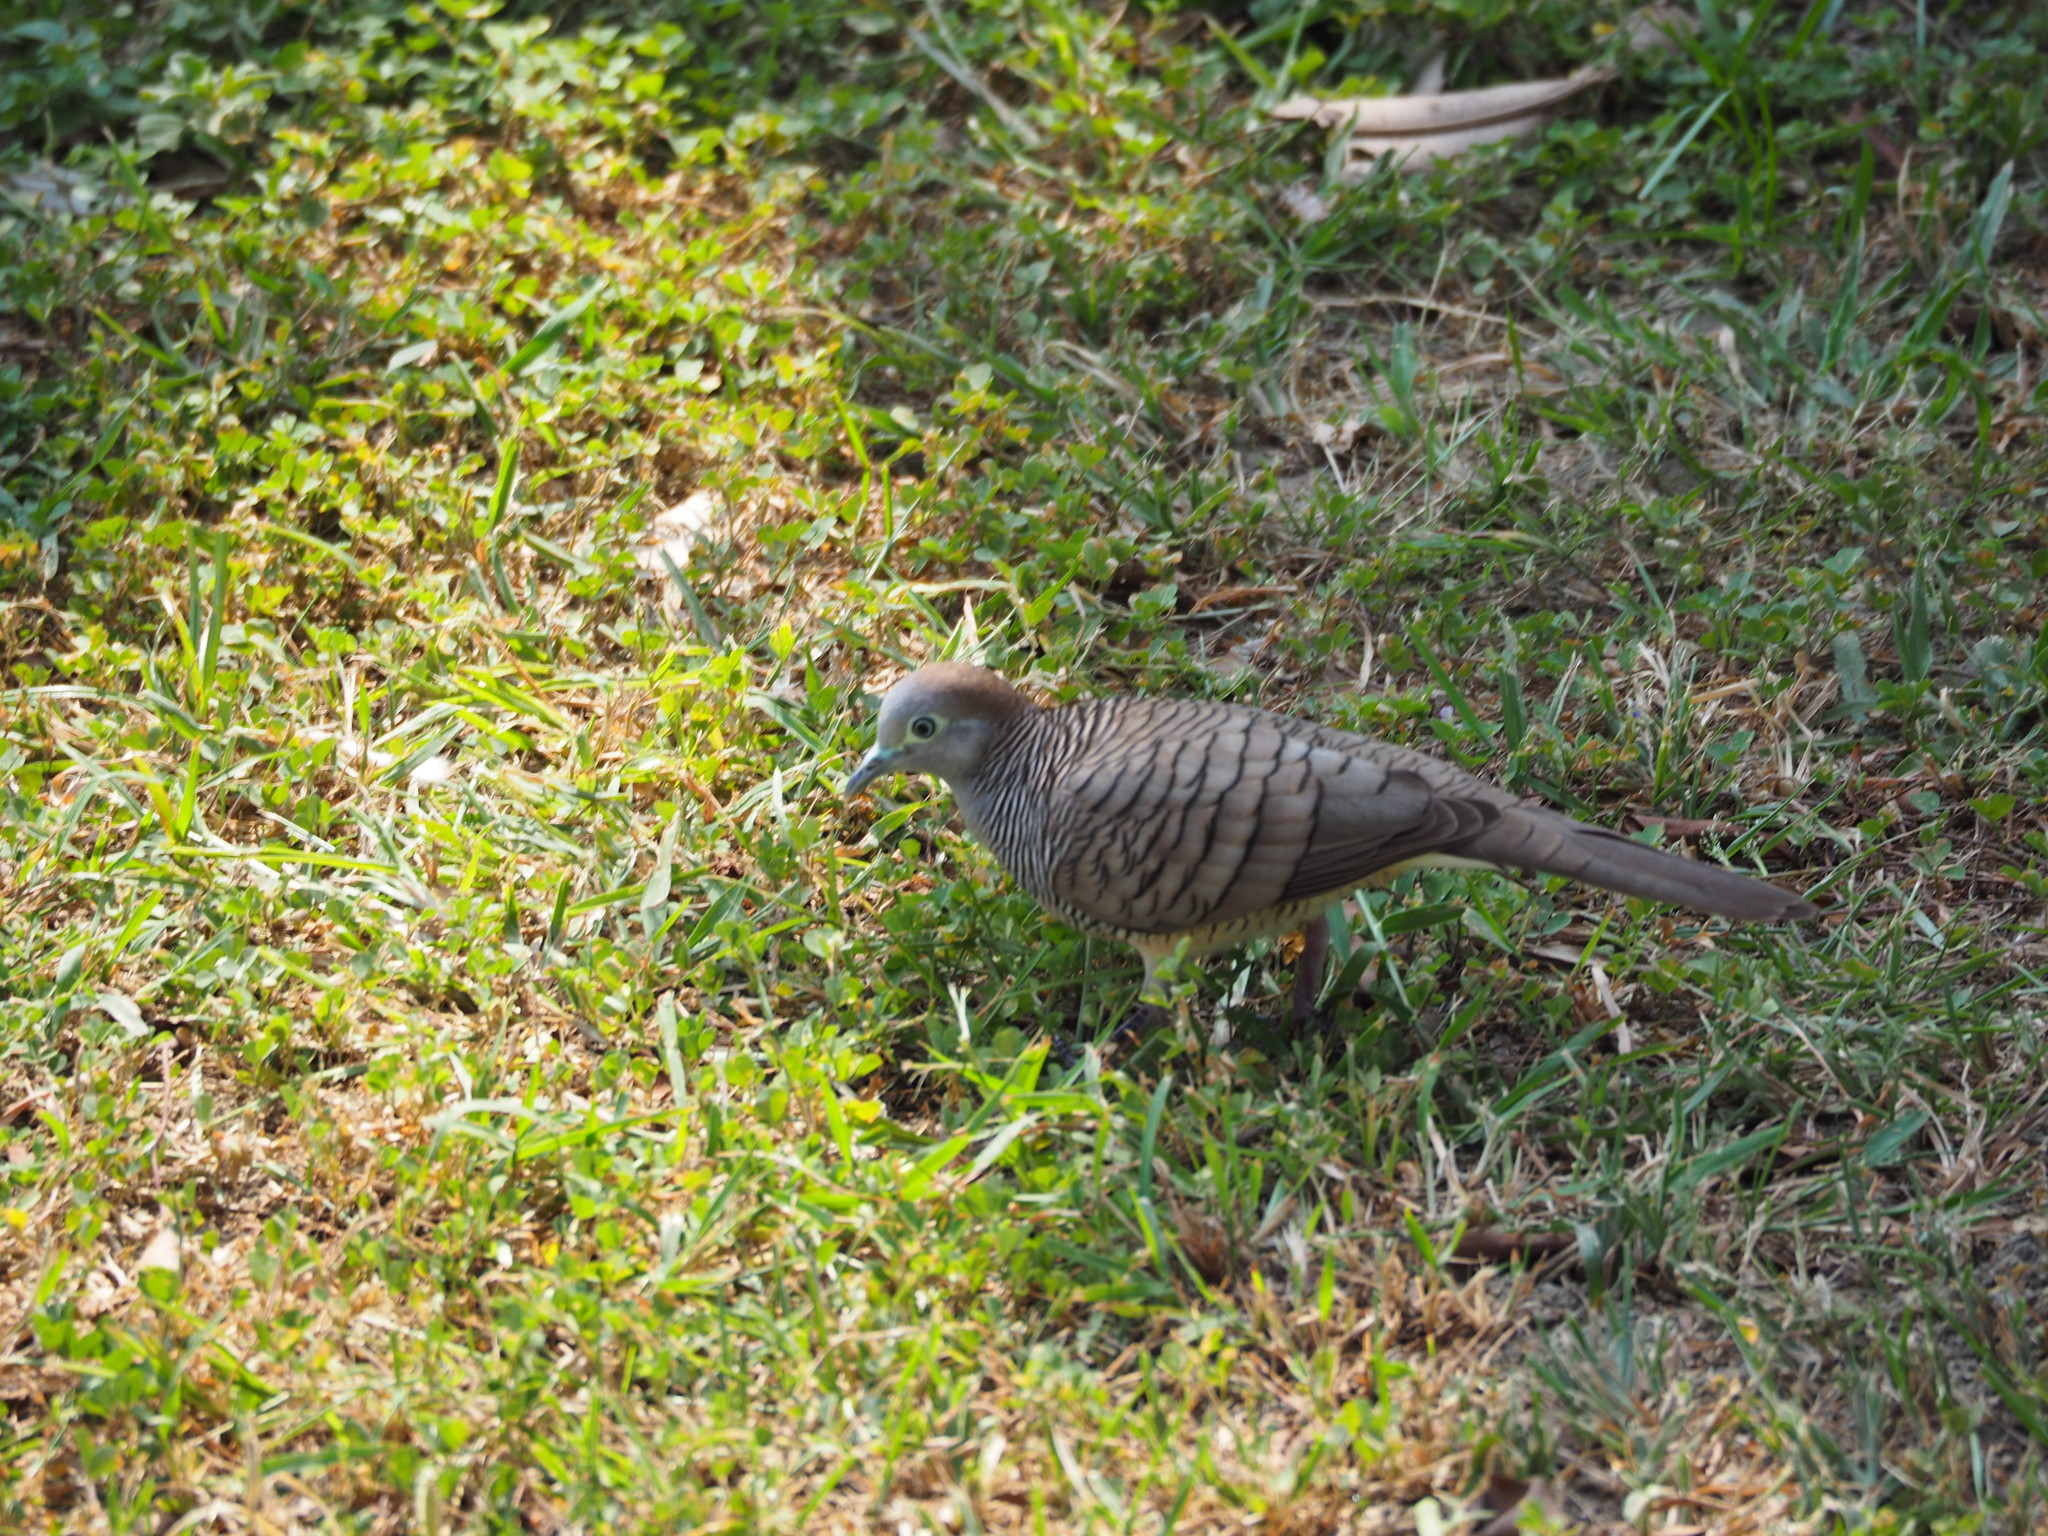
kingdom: Animalia
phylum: Chordata
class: Aves
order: Columbiformes
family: Columbidae
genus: Geopelia
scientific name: Geopelia striata
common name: Zebra dove
